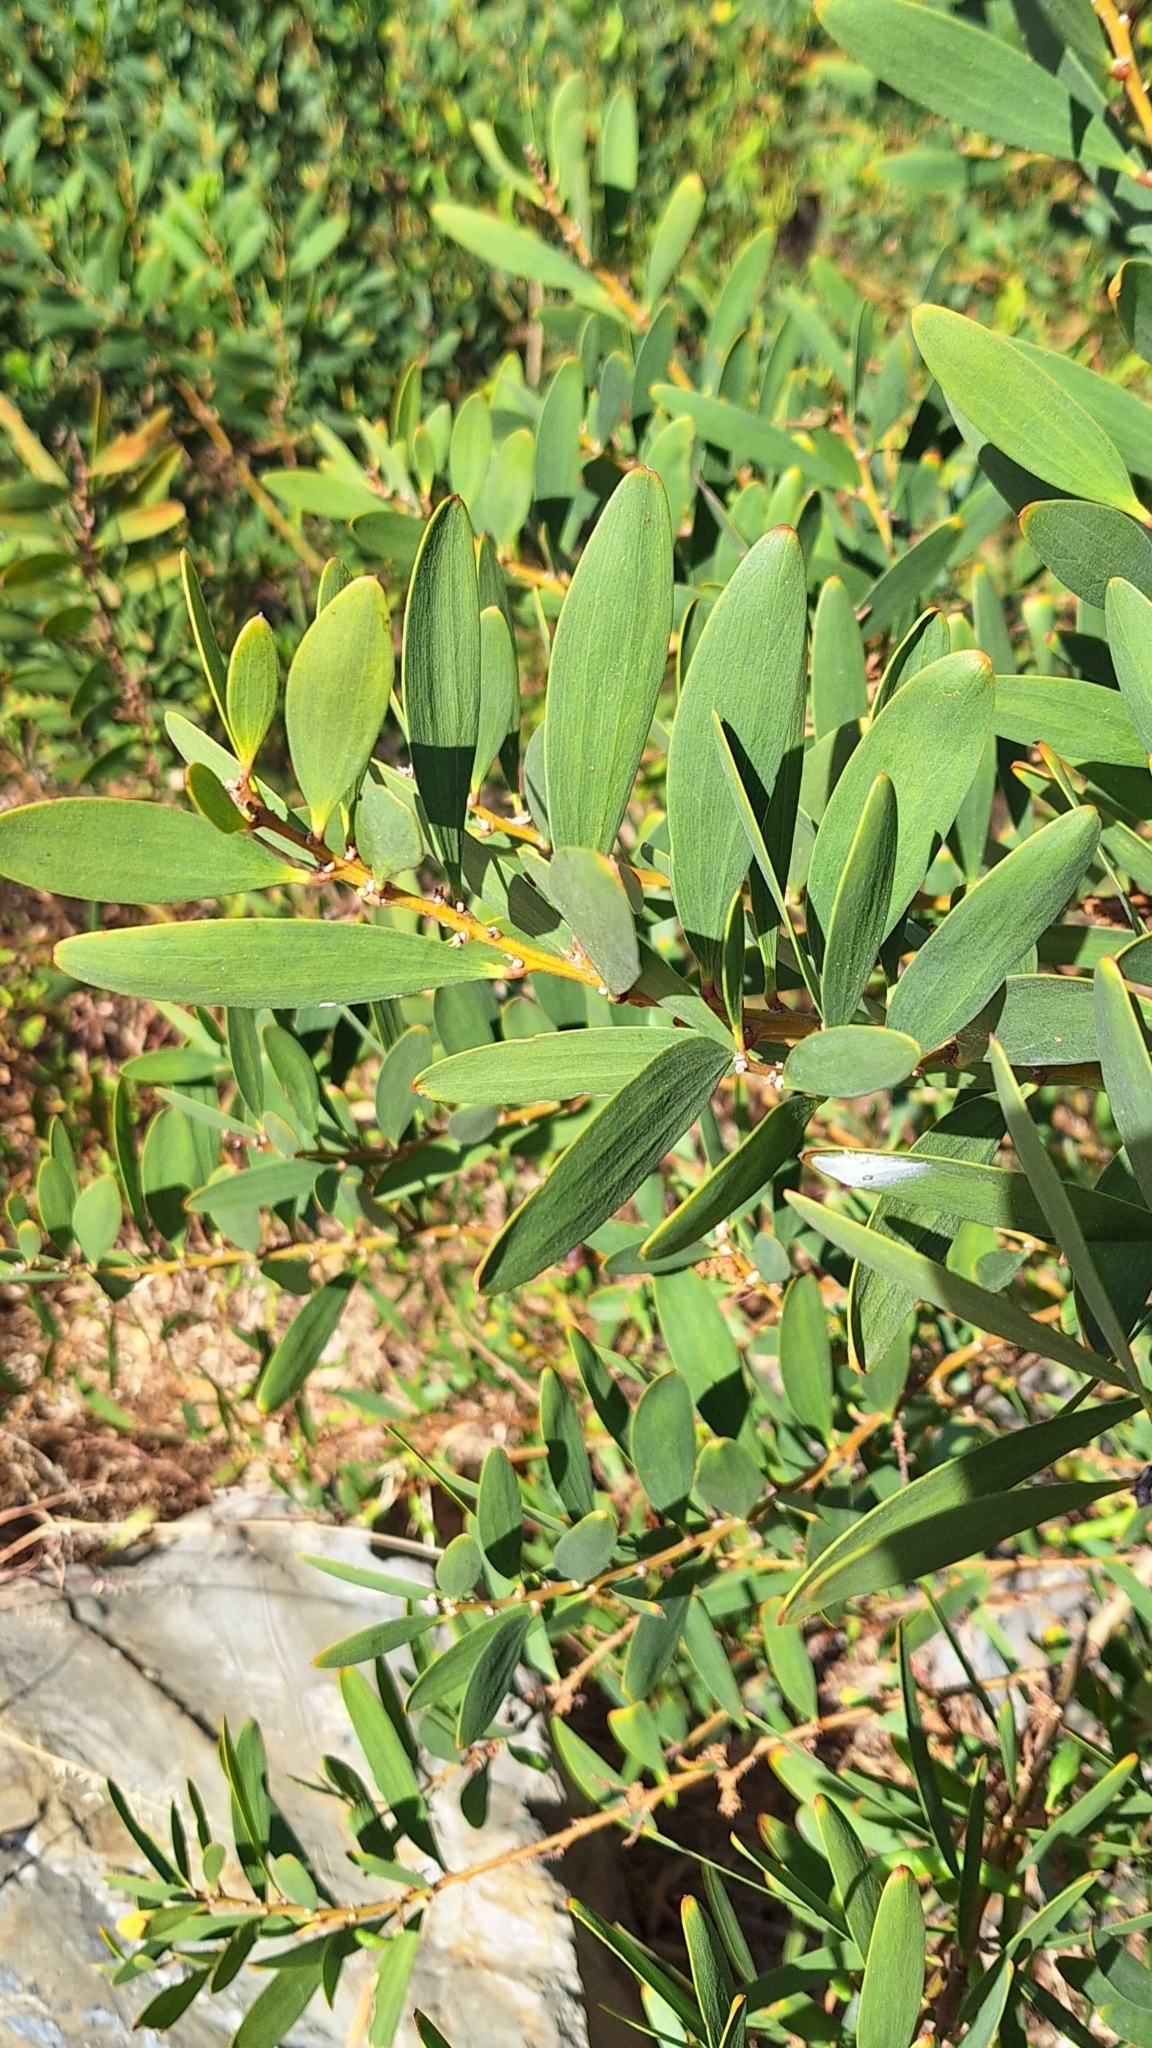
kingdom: Plantae
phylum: Tracheophyta
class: Magnoliopsida
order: Fabales
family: Fabaceae
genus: Acacia
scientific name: Acacia longifolia
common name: Sydney golden wattle
